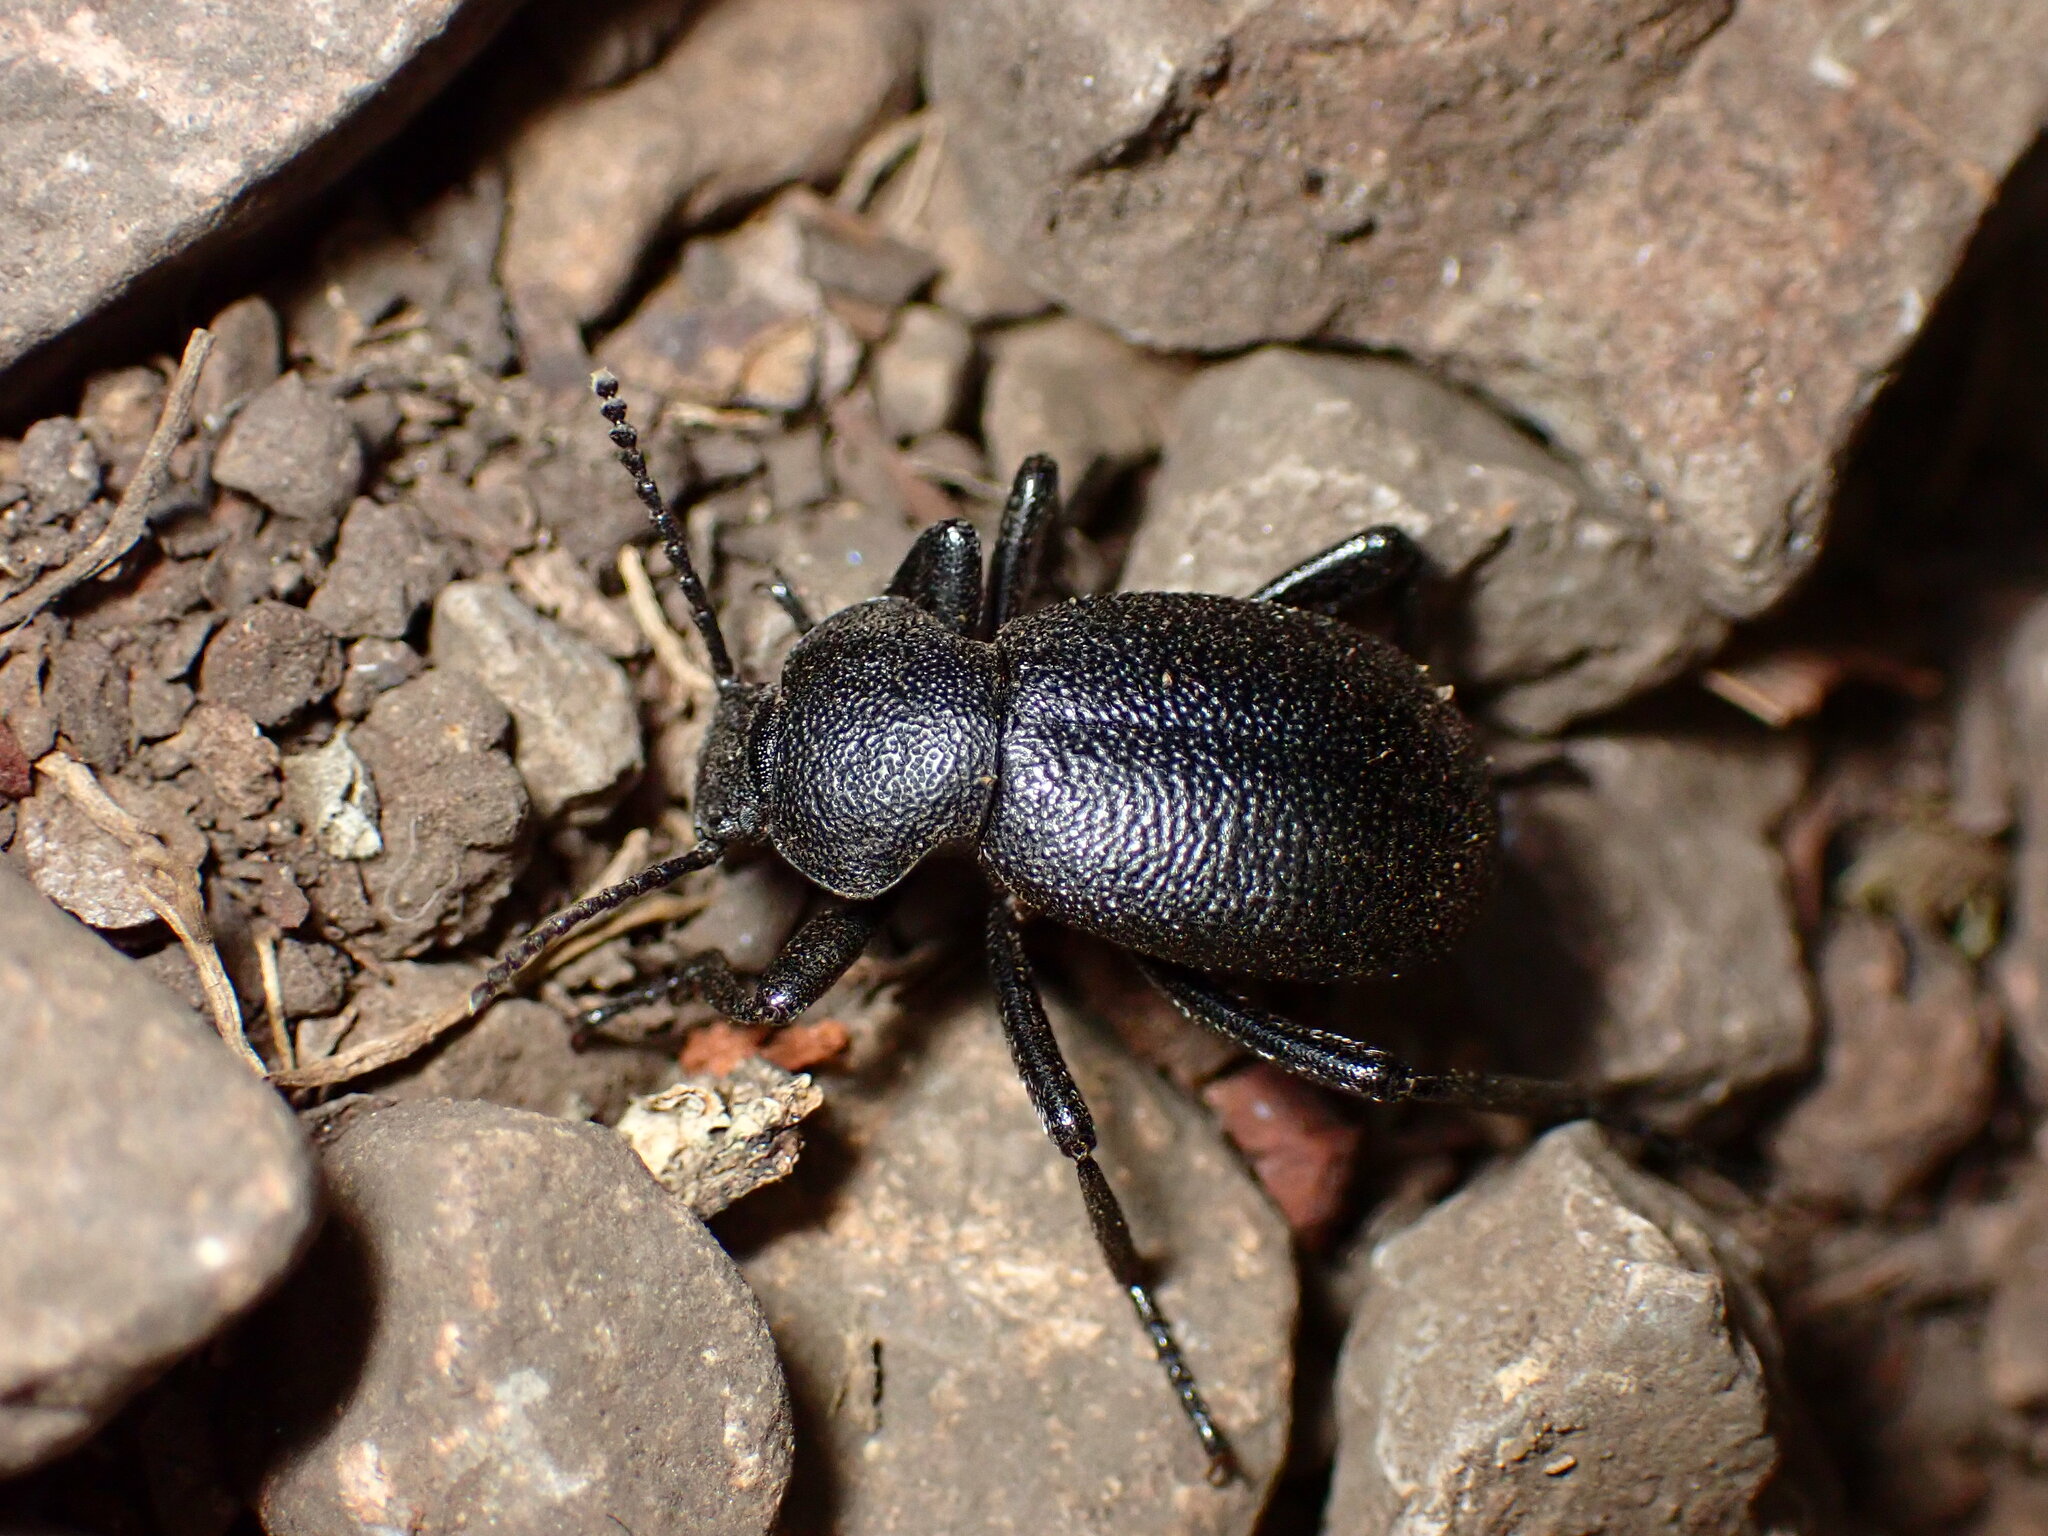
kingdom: Animalia
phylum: Arthropoda
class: Insecta
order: Coleoptera
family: Tenebrionidae
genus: Eleodes
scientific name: Eleodes cordata
